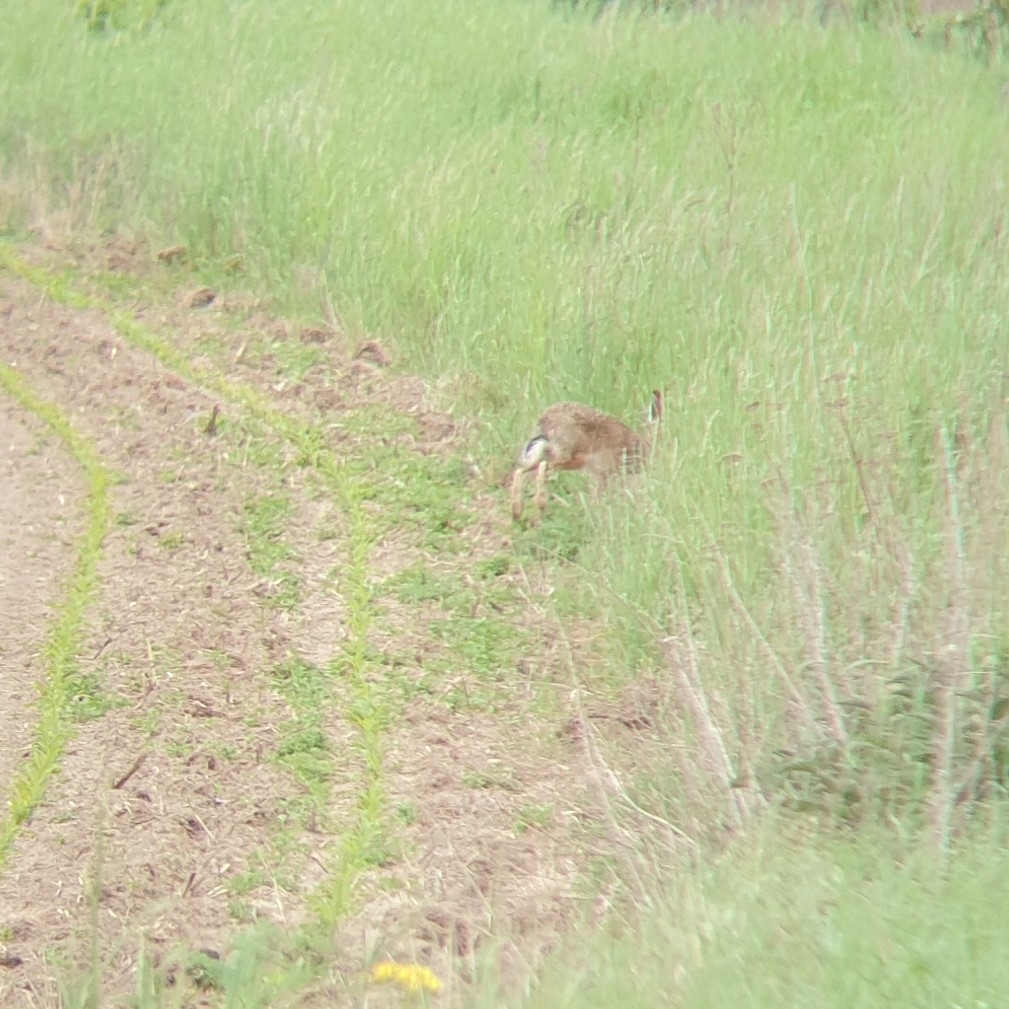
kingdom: Animalia
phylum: Chordata
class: Mammalia
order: Lagomorpha
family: Leporidae
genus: Lepus
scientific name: Lepus europaeus
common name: European hare
